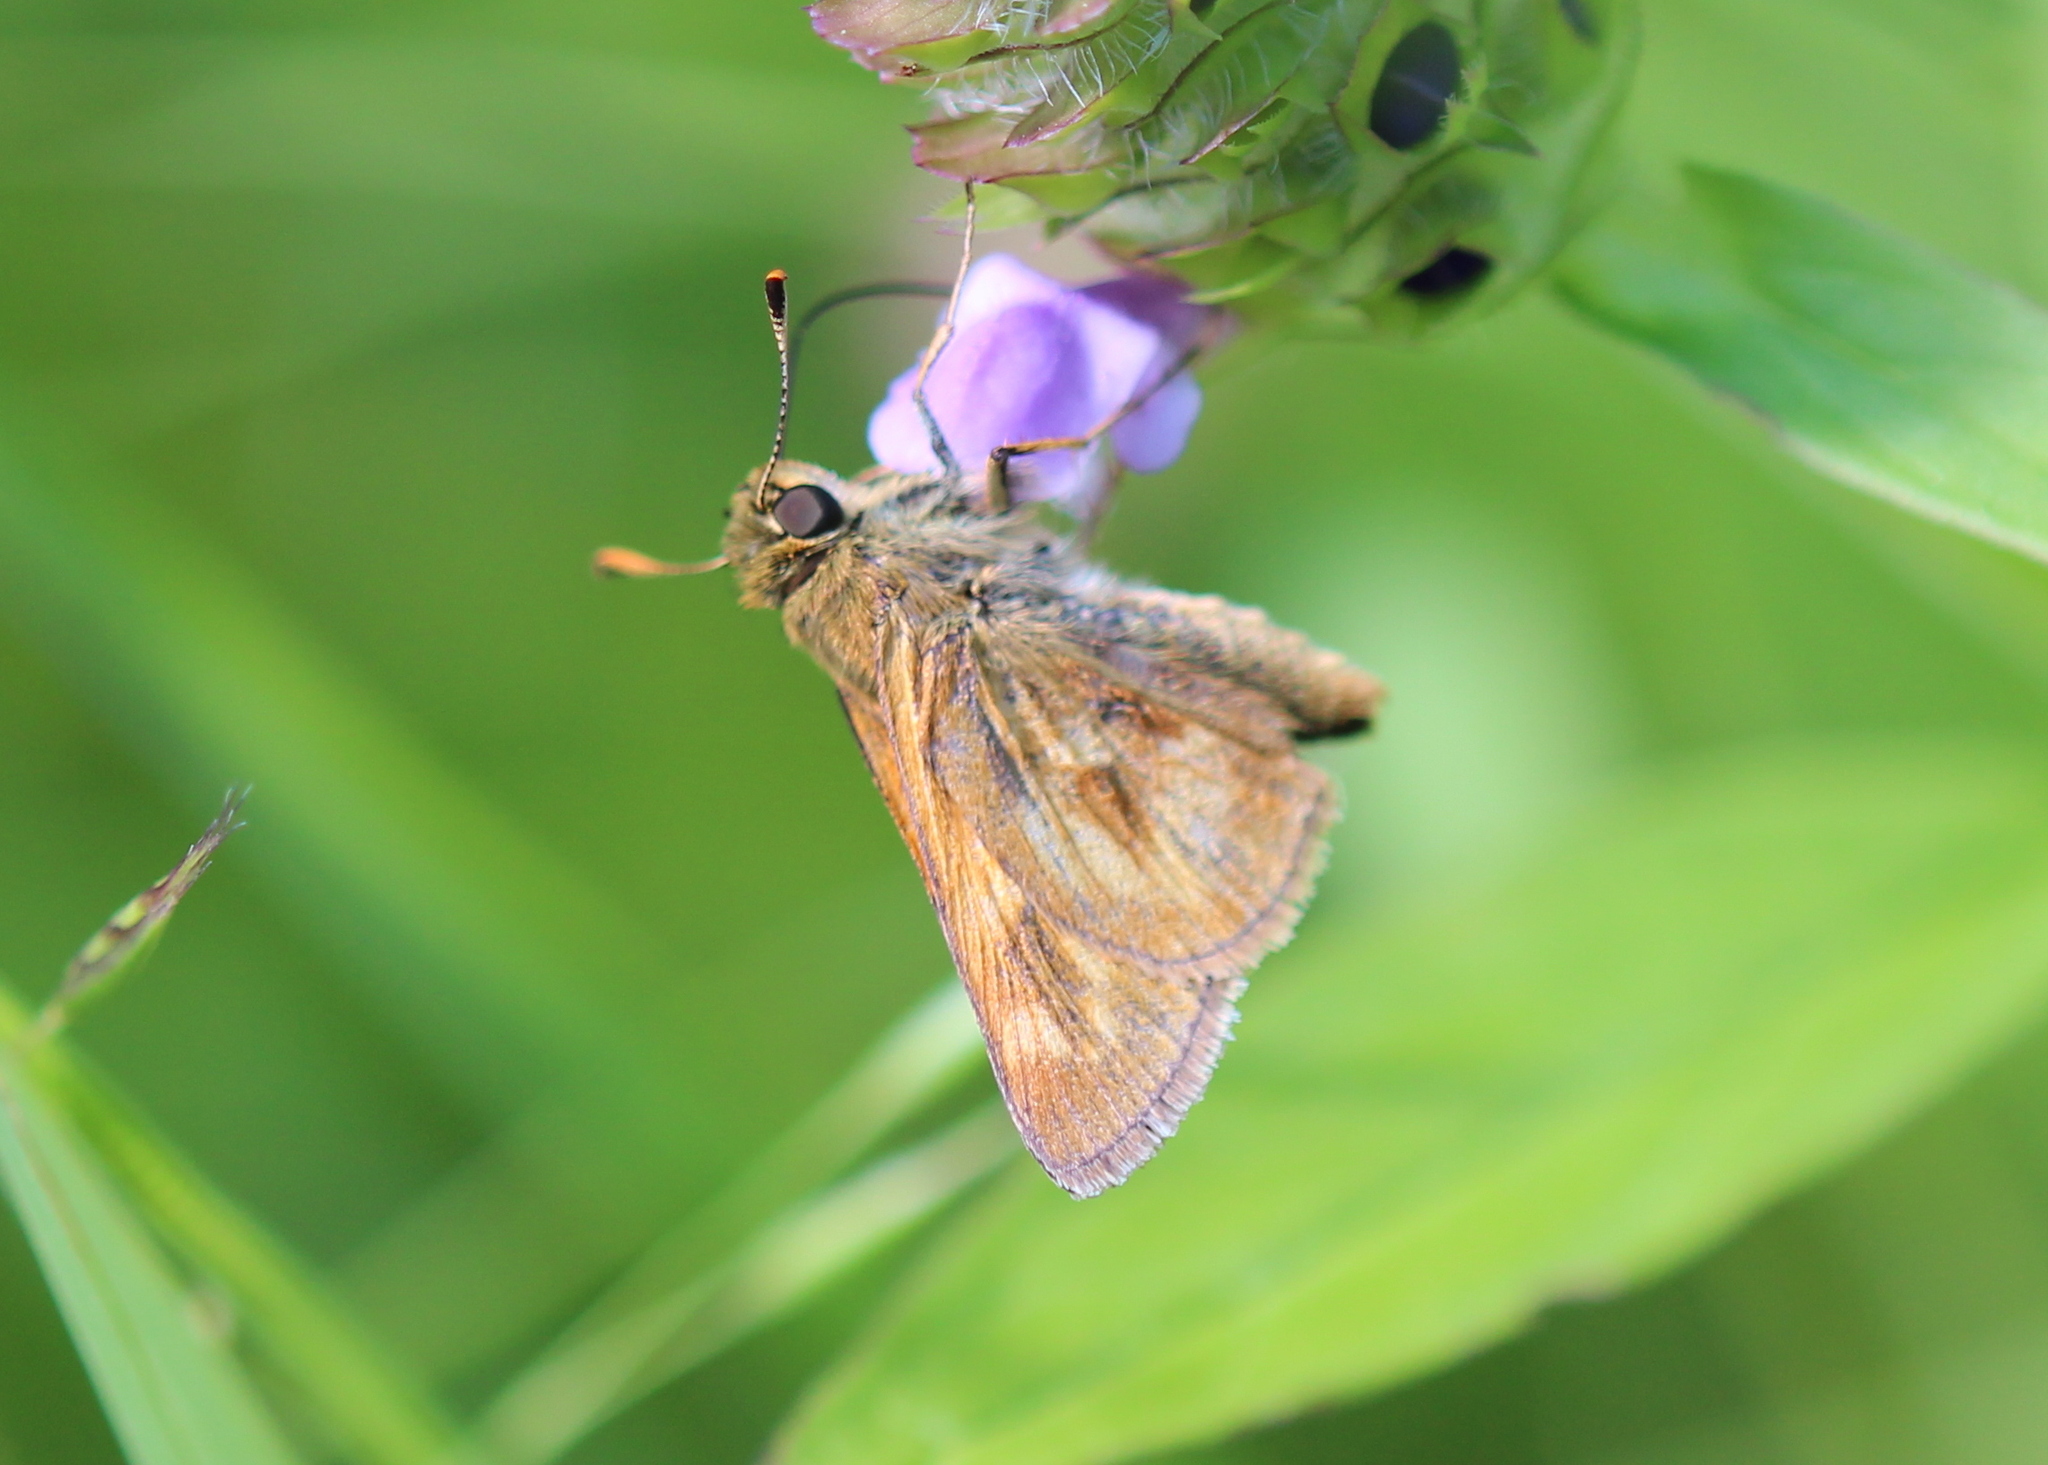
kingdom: Animalia
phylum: Arthropoda
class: Insecta
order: Lepidoptera
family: Hesperiidae
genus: Polites
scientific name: Polites mystic
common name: Long dash
